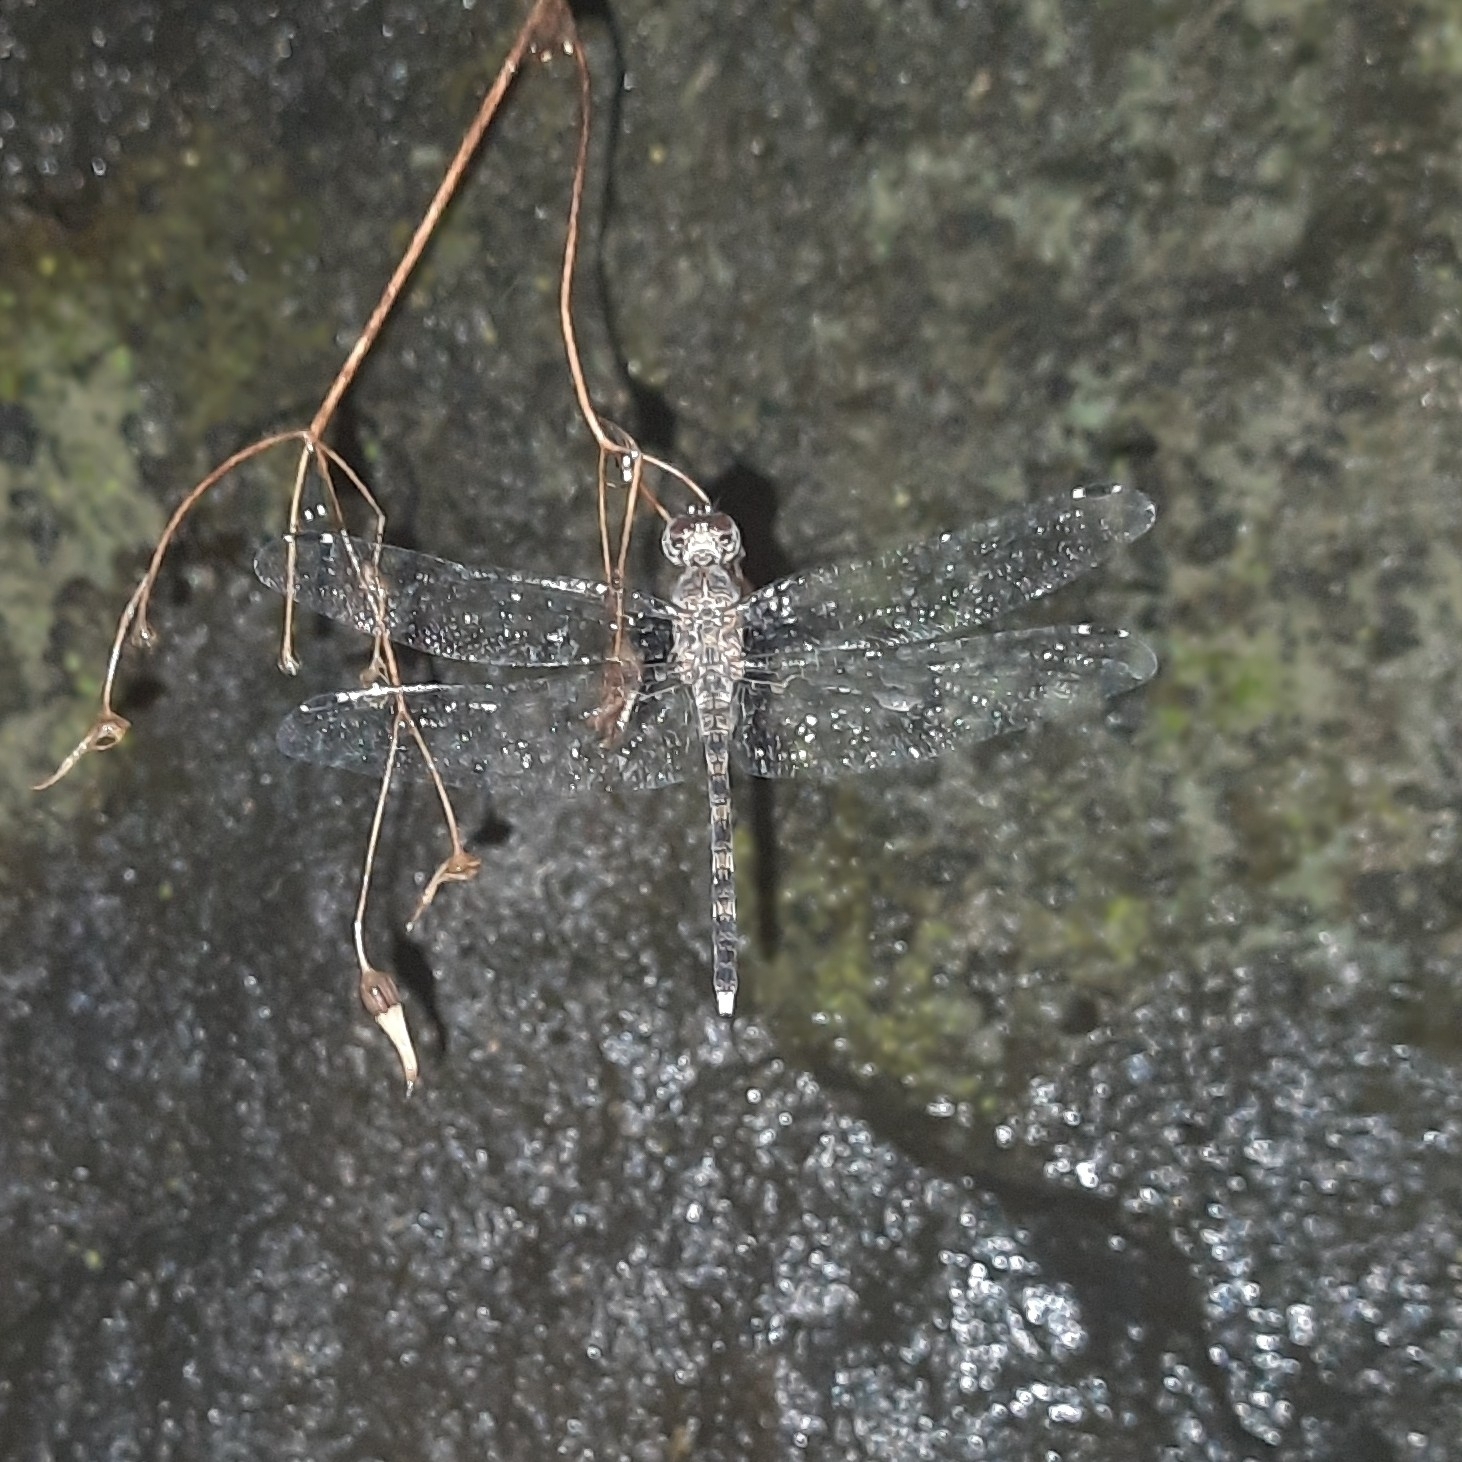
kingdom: Animalia
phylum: Arthropoda
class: Insecta
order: Odonata
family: Libellulidae
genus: Bradinopyga
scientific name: Bradinopyga geminata
